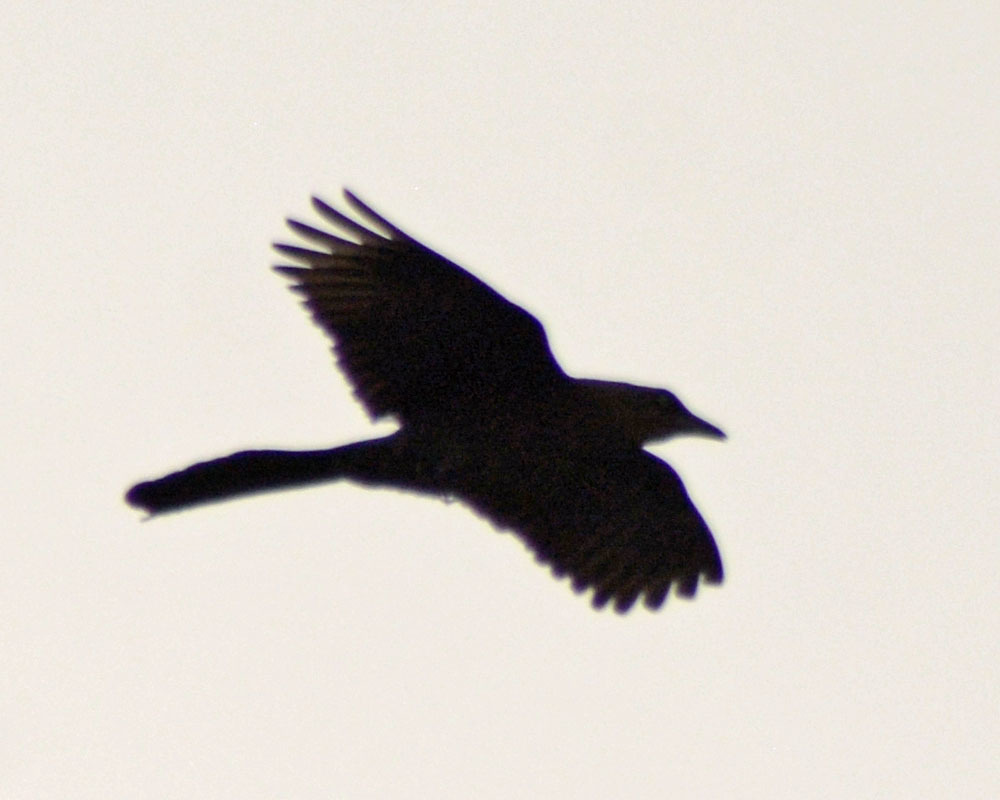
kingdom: Animalia
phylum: Chordata
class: Aves
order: Passeriformes
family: Icteridae
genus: Quiscalus
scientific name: Quiscalus mexicanus
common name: Great-tailed grackle
